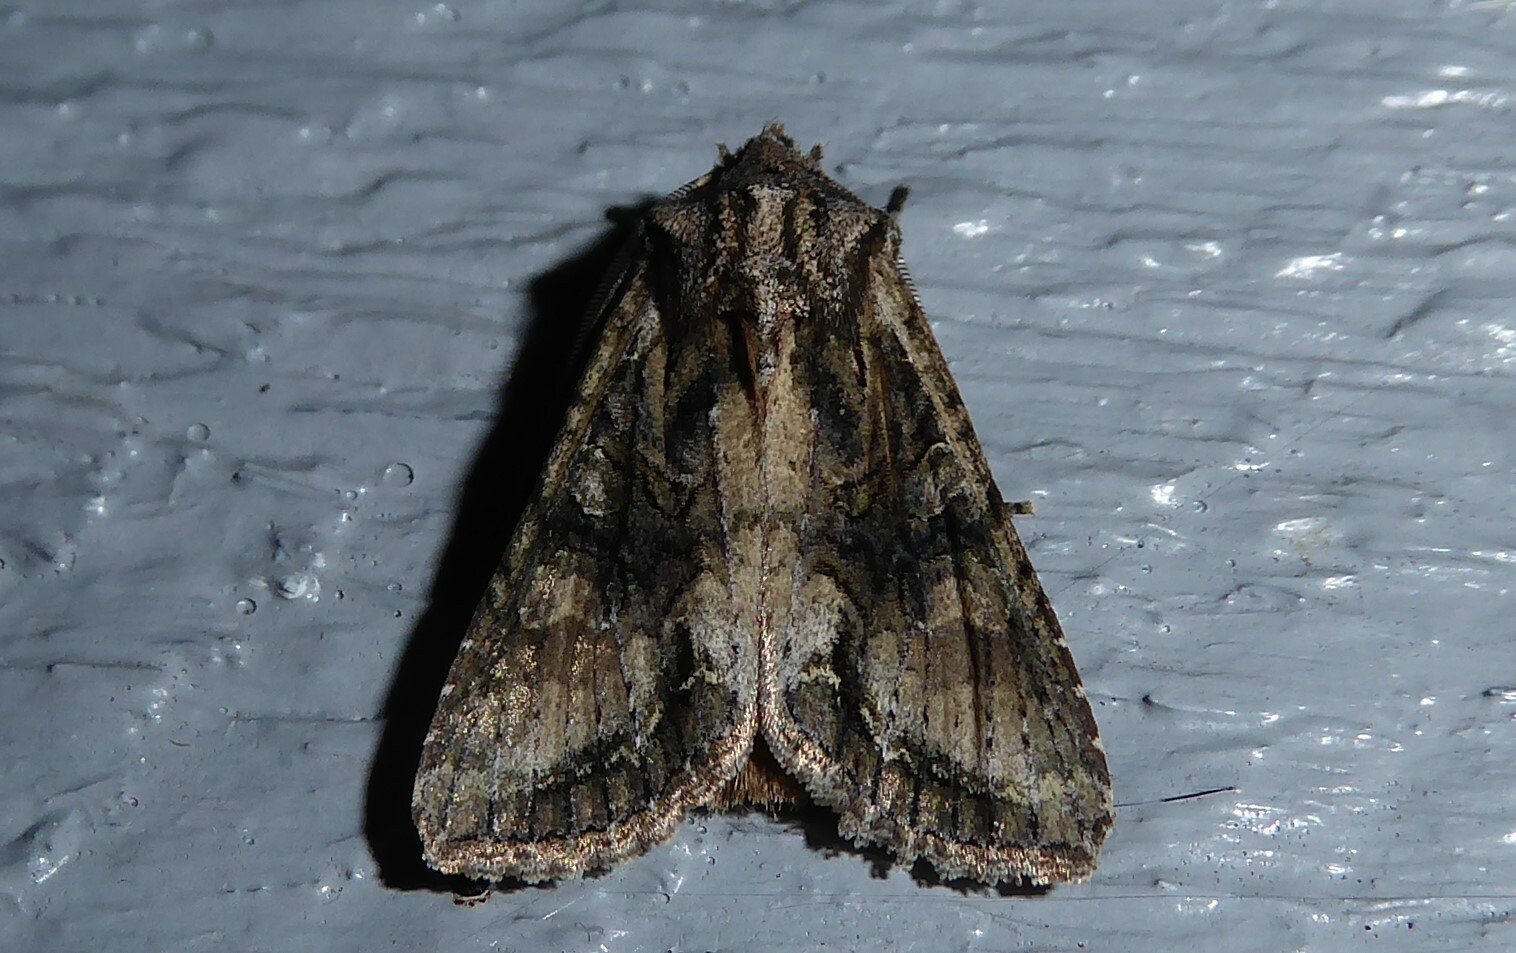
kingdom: Animalia
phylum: Arthropoda
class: Insecta
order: Lepidoptera
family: Noctuidae
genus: Ichneutica
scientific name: Ichneutica mutans
